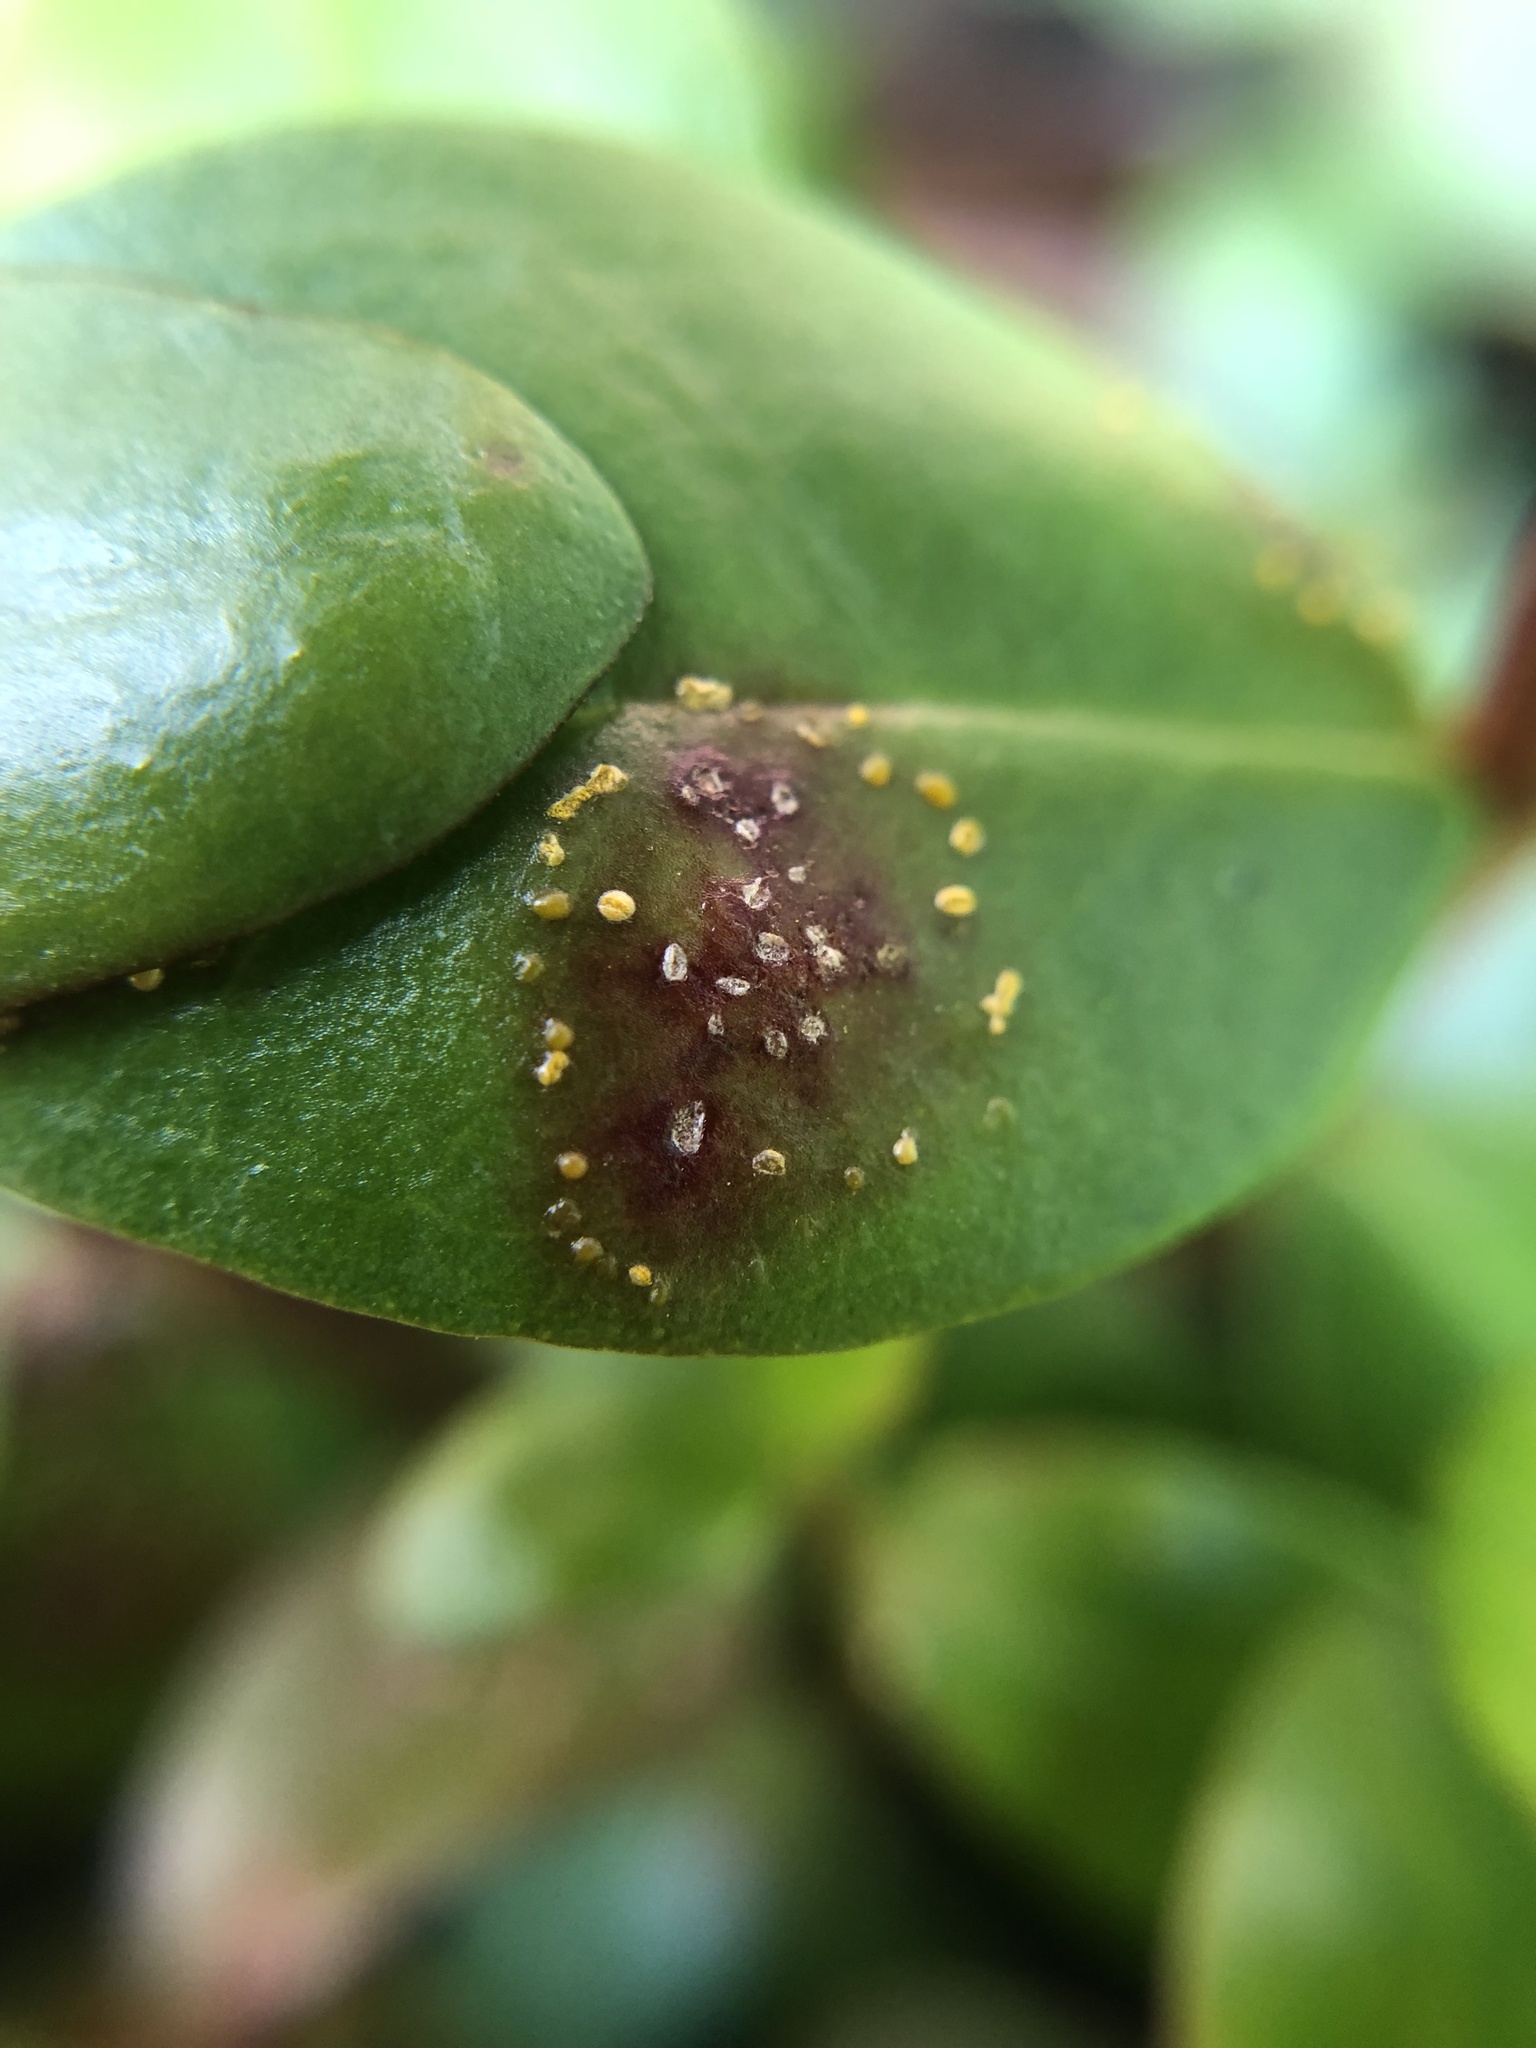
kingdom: Fungi
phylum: Basidiomycota
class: Pucciniomycetes
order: Pucciniales
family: Sphaerophragmiaceae
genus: Austropuccinia
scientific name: Austropuccinia psidii
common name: Myrtle rust
